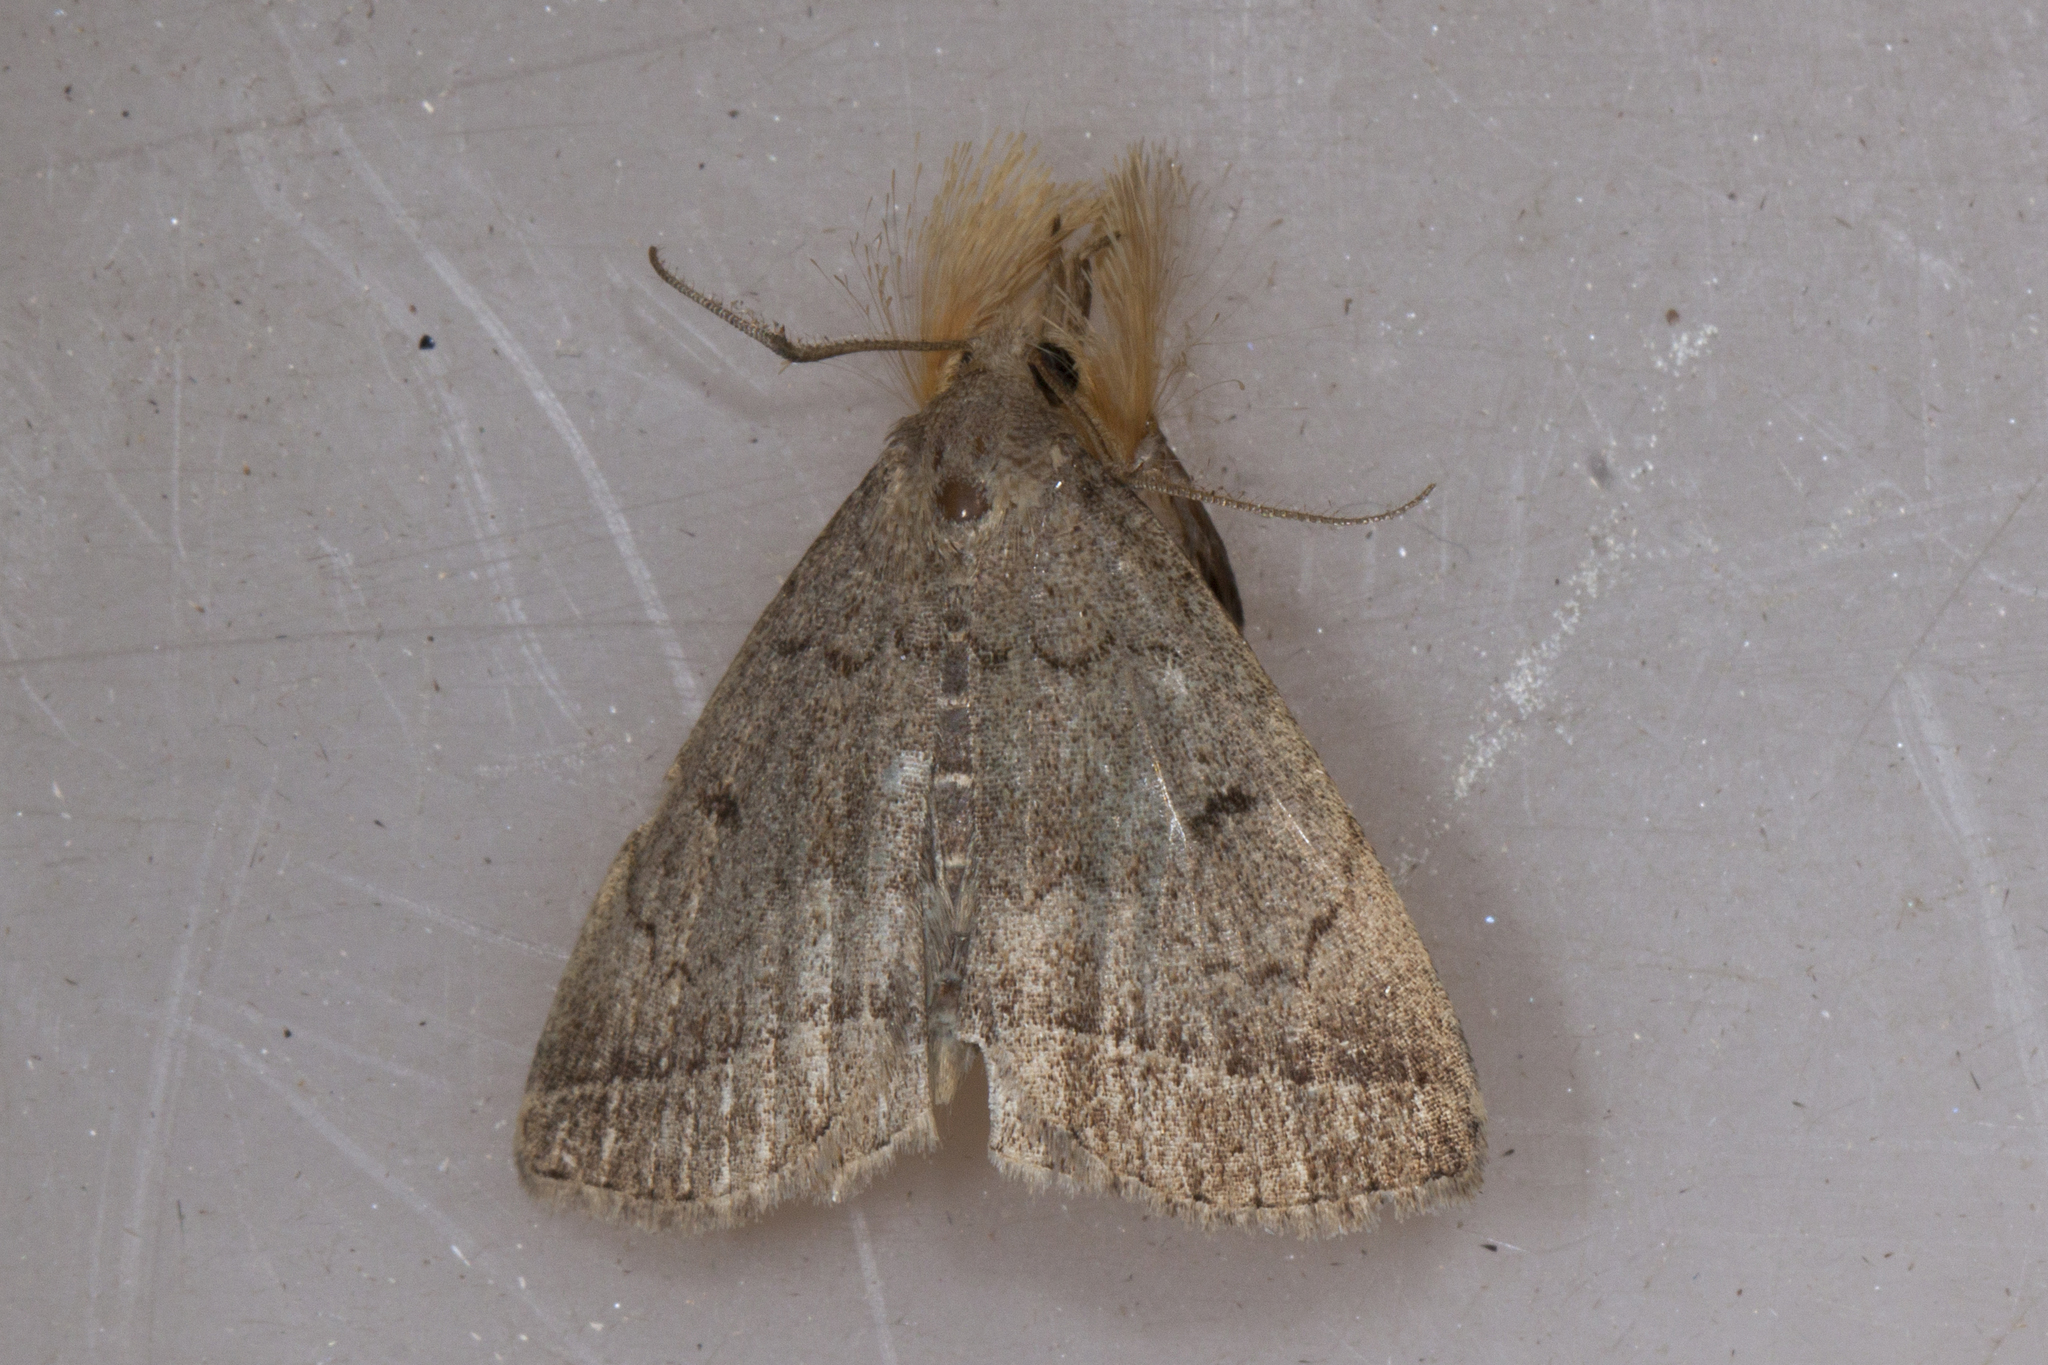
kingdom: Animalia
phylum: Arthropoda
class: Insecta
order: Lepidoptera
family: Erebidae
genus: Zanclognatha
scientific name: Zanclognatha jacchusalis
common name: Yellowish zanclognatha
